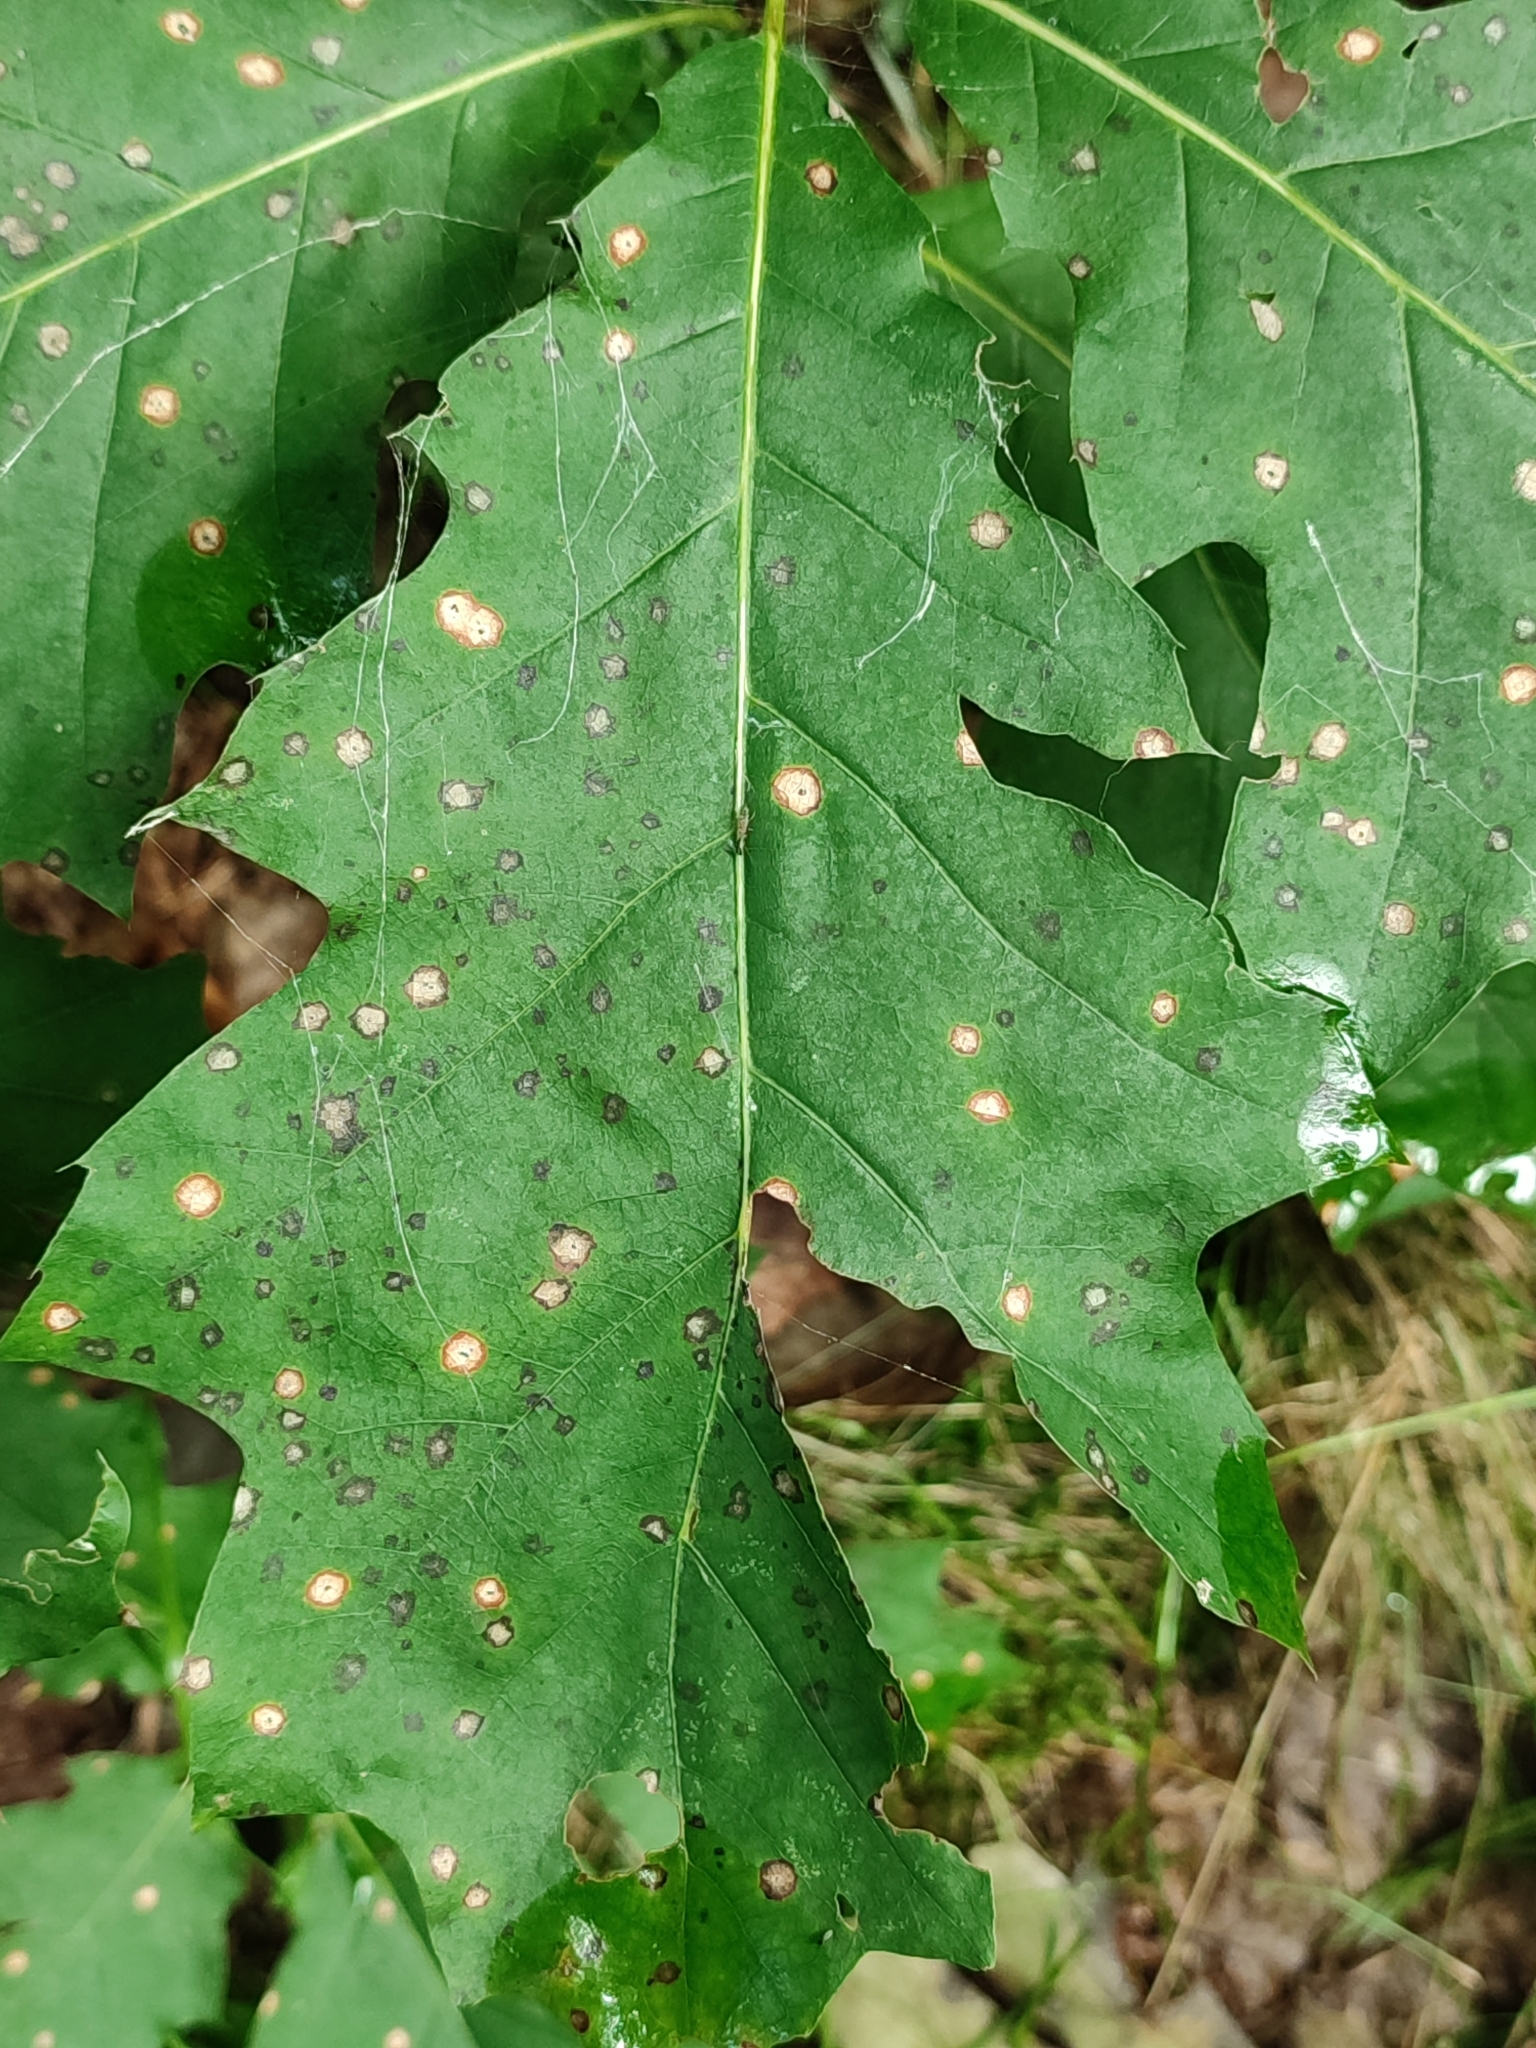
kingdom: Plantae
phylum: Tracheophyta
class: Magnoliopsida
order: Fagales
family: Fagaceae
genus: Quercus
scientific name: Quercus rubra
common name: Red oak
